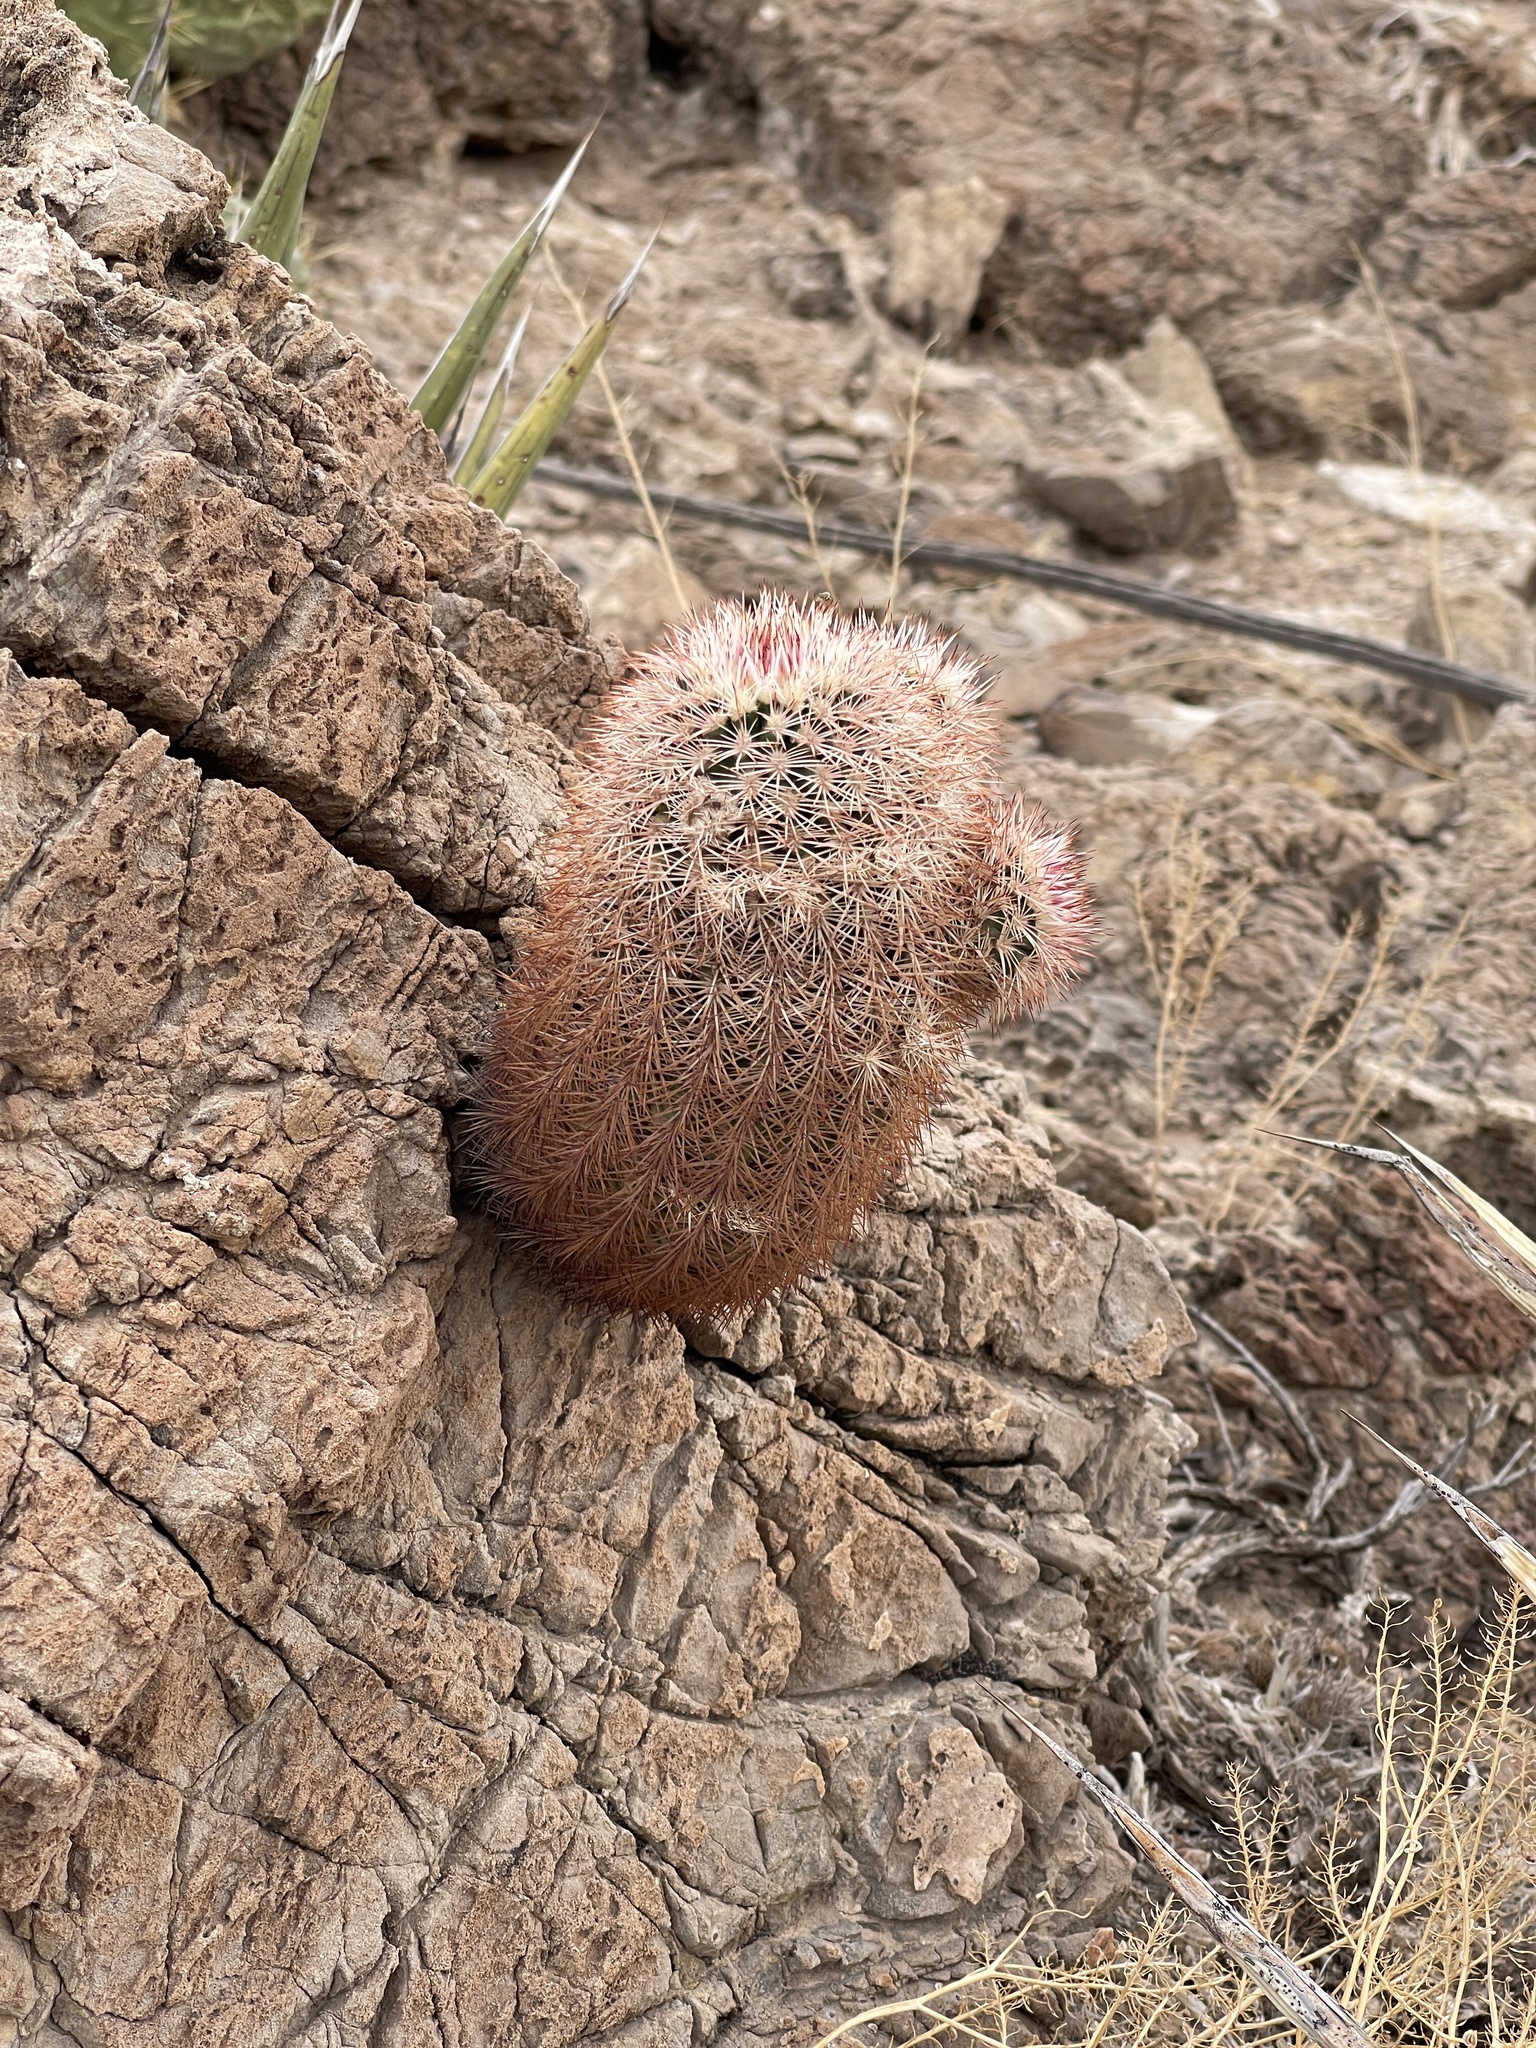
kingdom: Plantae
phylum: Tracheophyta
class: Magnoliopsida
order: Caryophyllales
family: Cactaceae
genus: Echinocereus
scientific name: Echinocereus dasyacanthus
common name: Spiny hedgehog cactus
